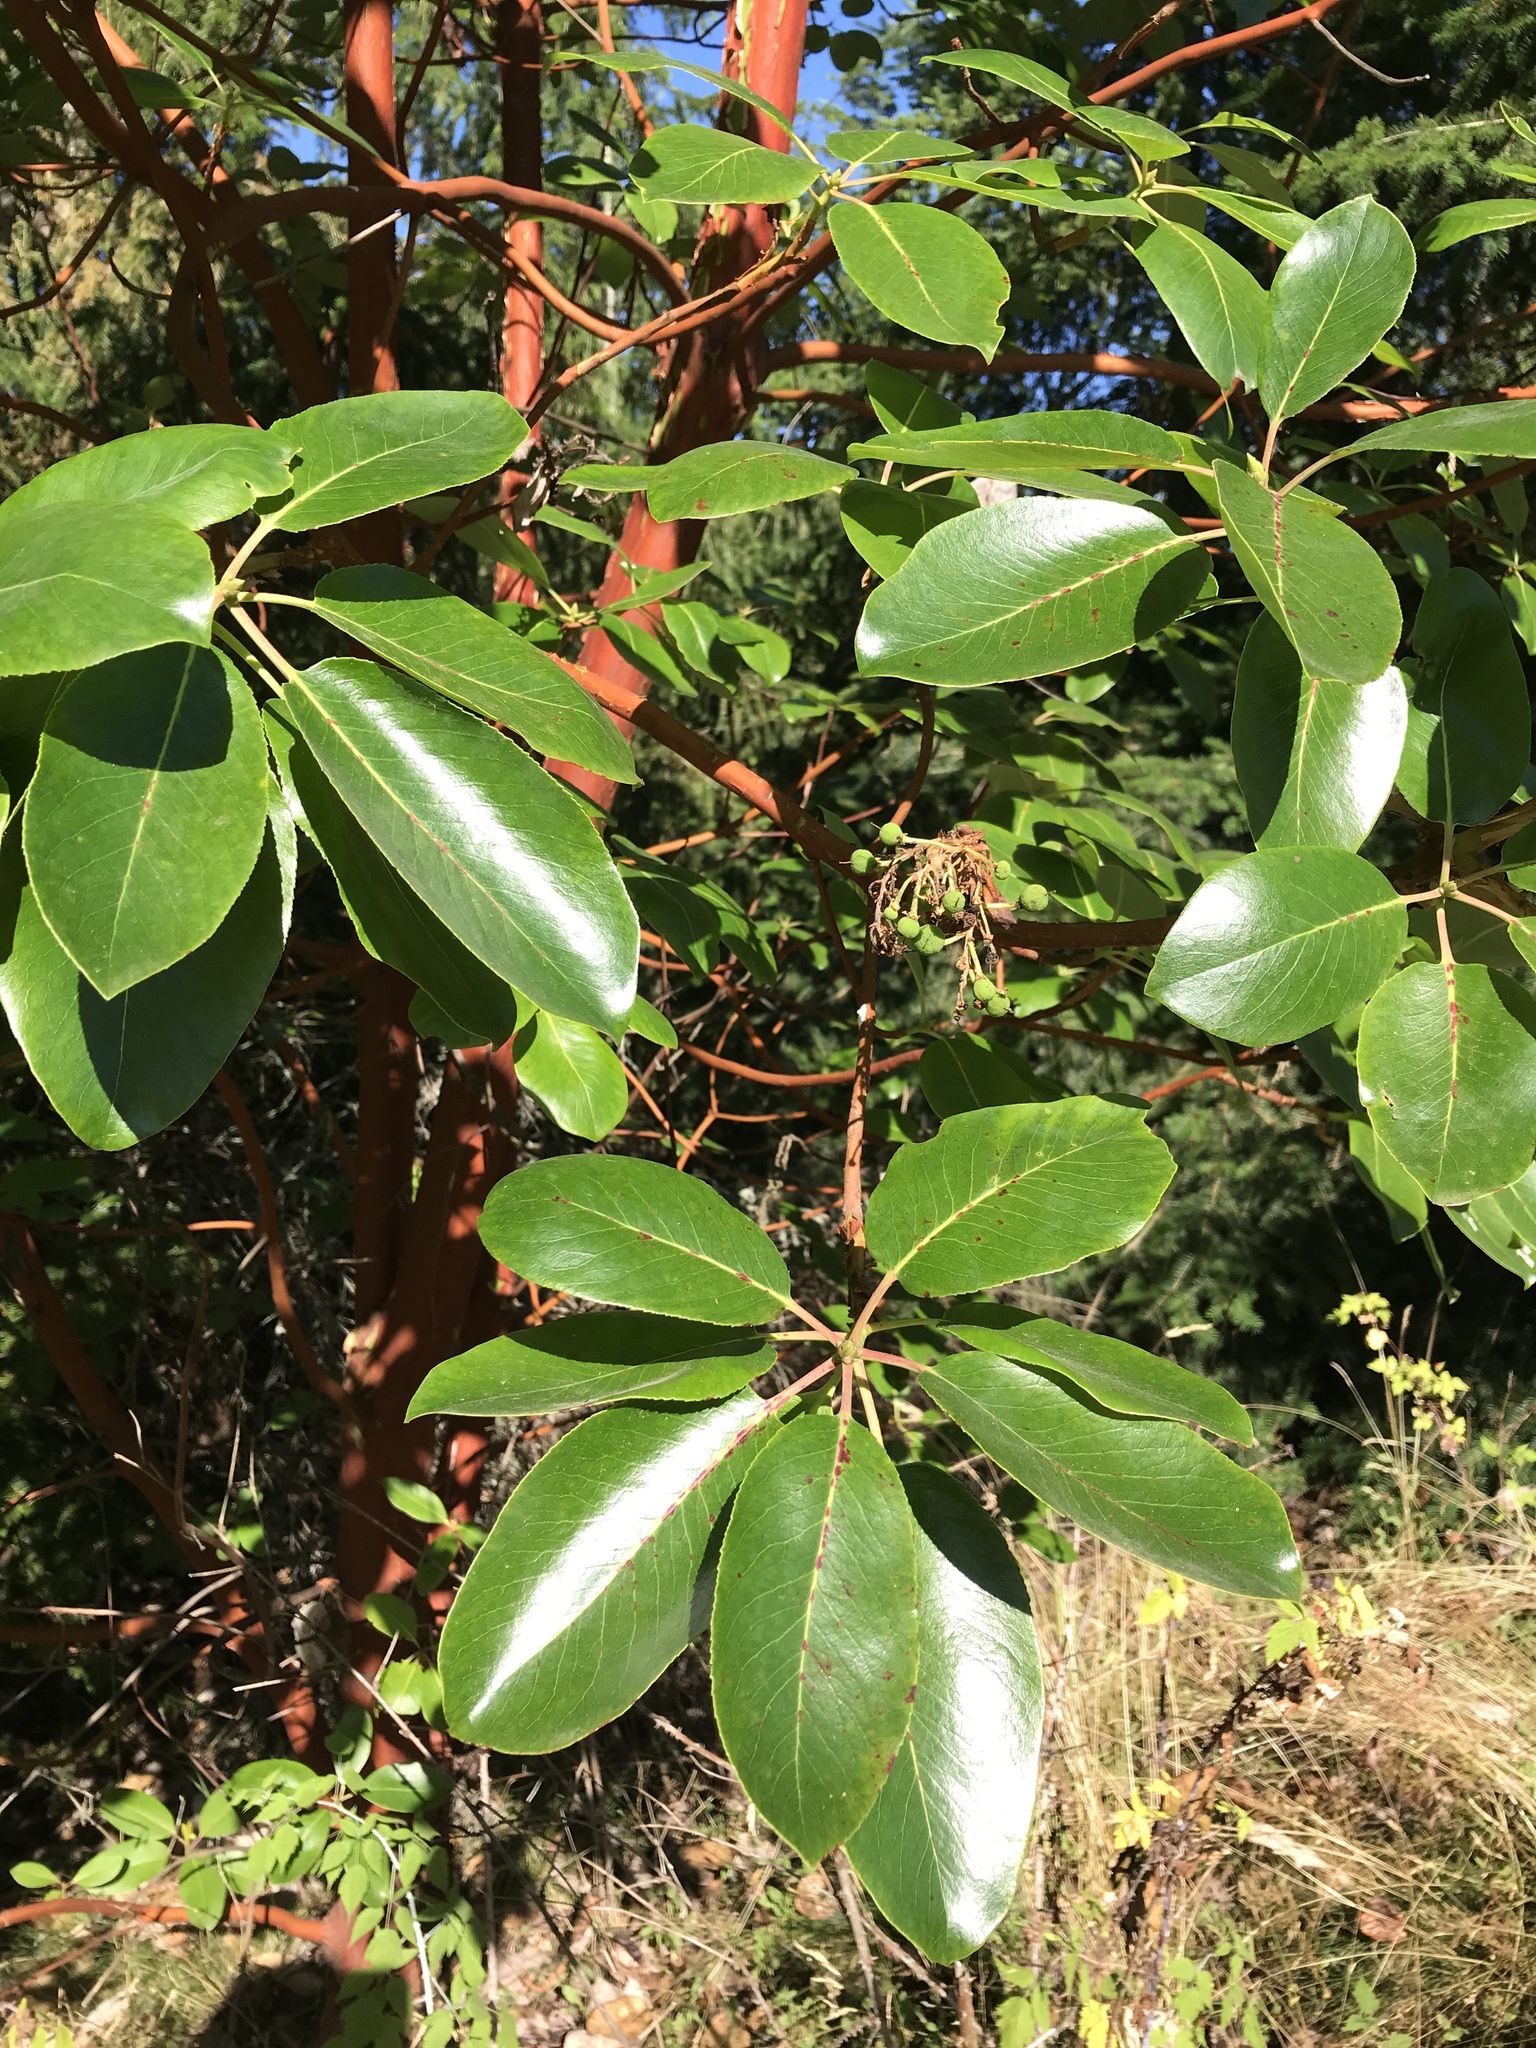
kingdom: Plantae
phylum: Tracheophyta
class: Magnoliopsida
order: Ericales
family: Ericaceae
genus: Arbutus
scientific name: Arbutus menziesii
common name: Pacific madrone
